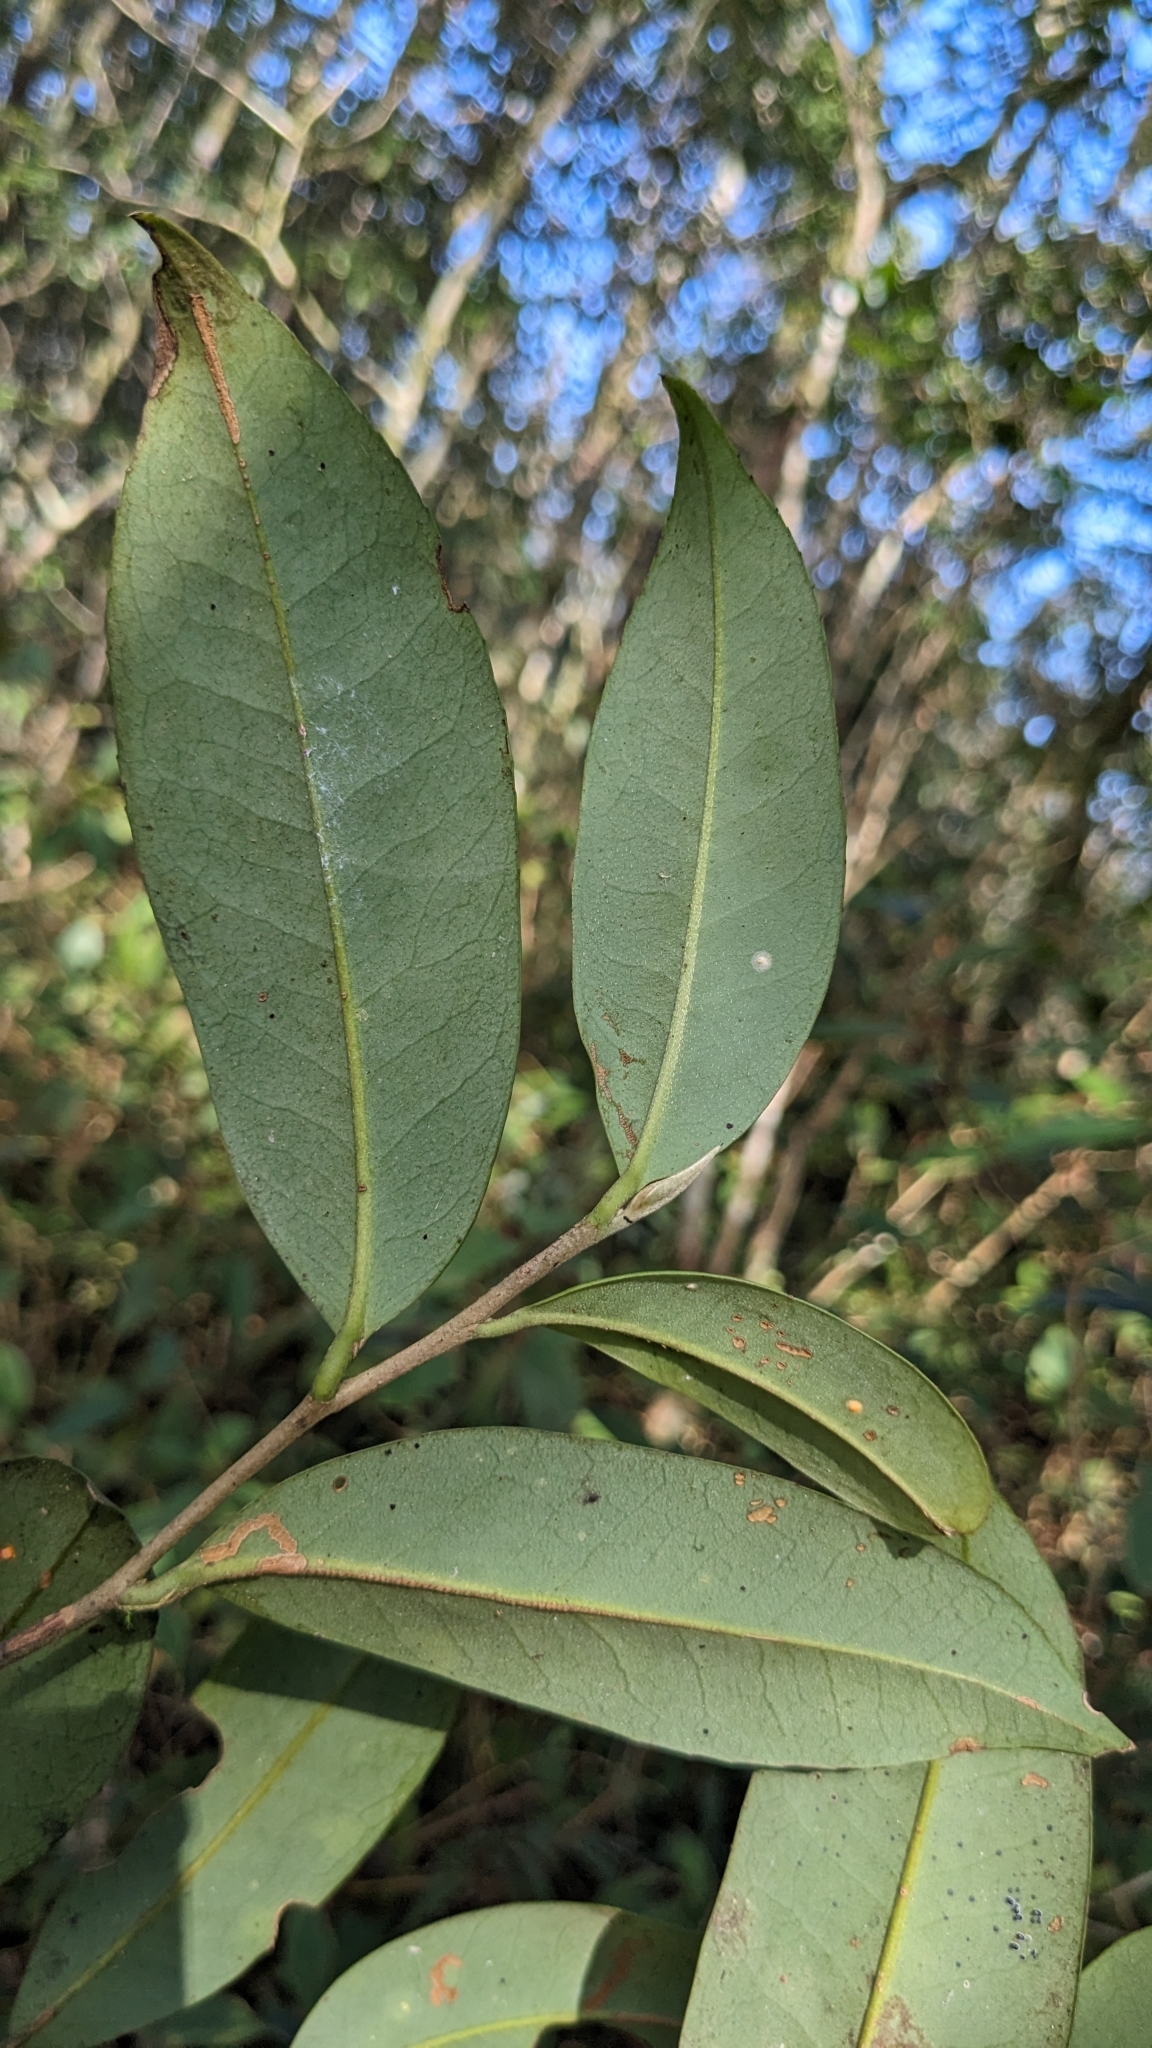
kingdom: Plantae
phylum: Tracheophyta
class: Magnoliopsida
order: Ericales
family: Pentaphylacaceae
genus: Adinandra
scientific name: Adinandra formosana
